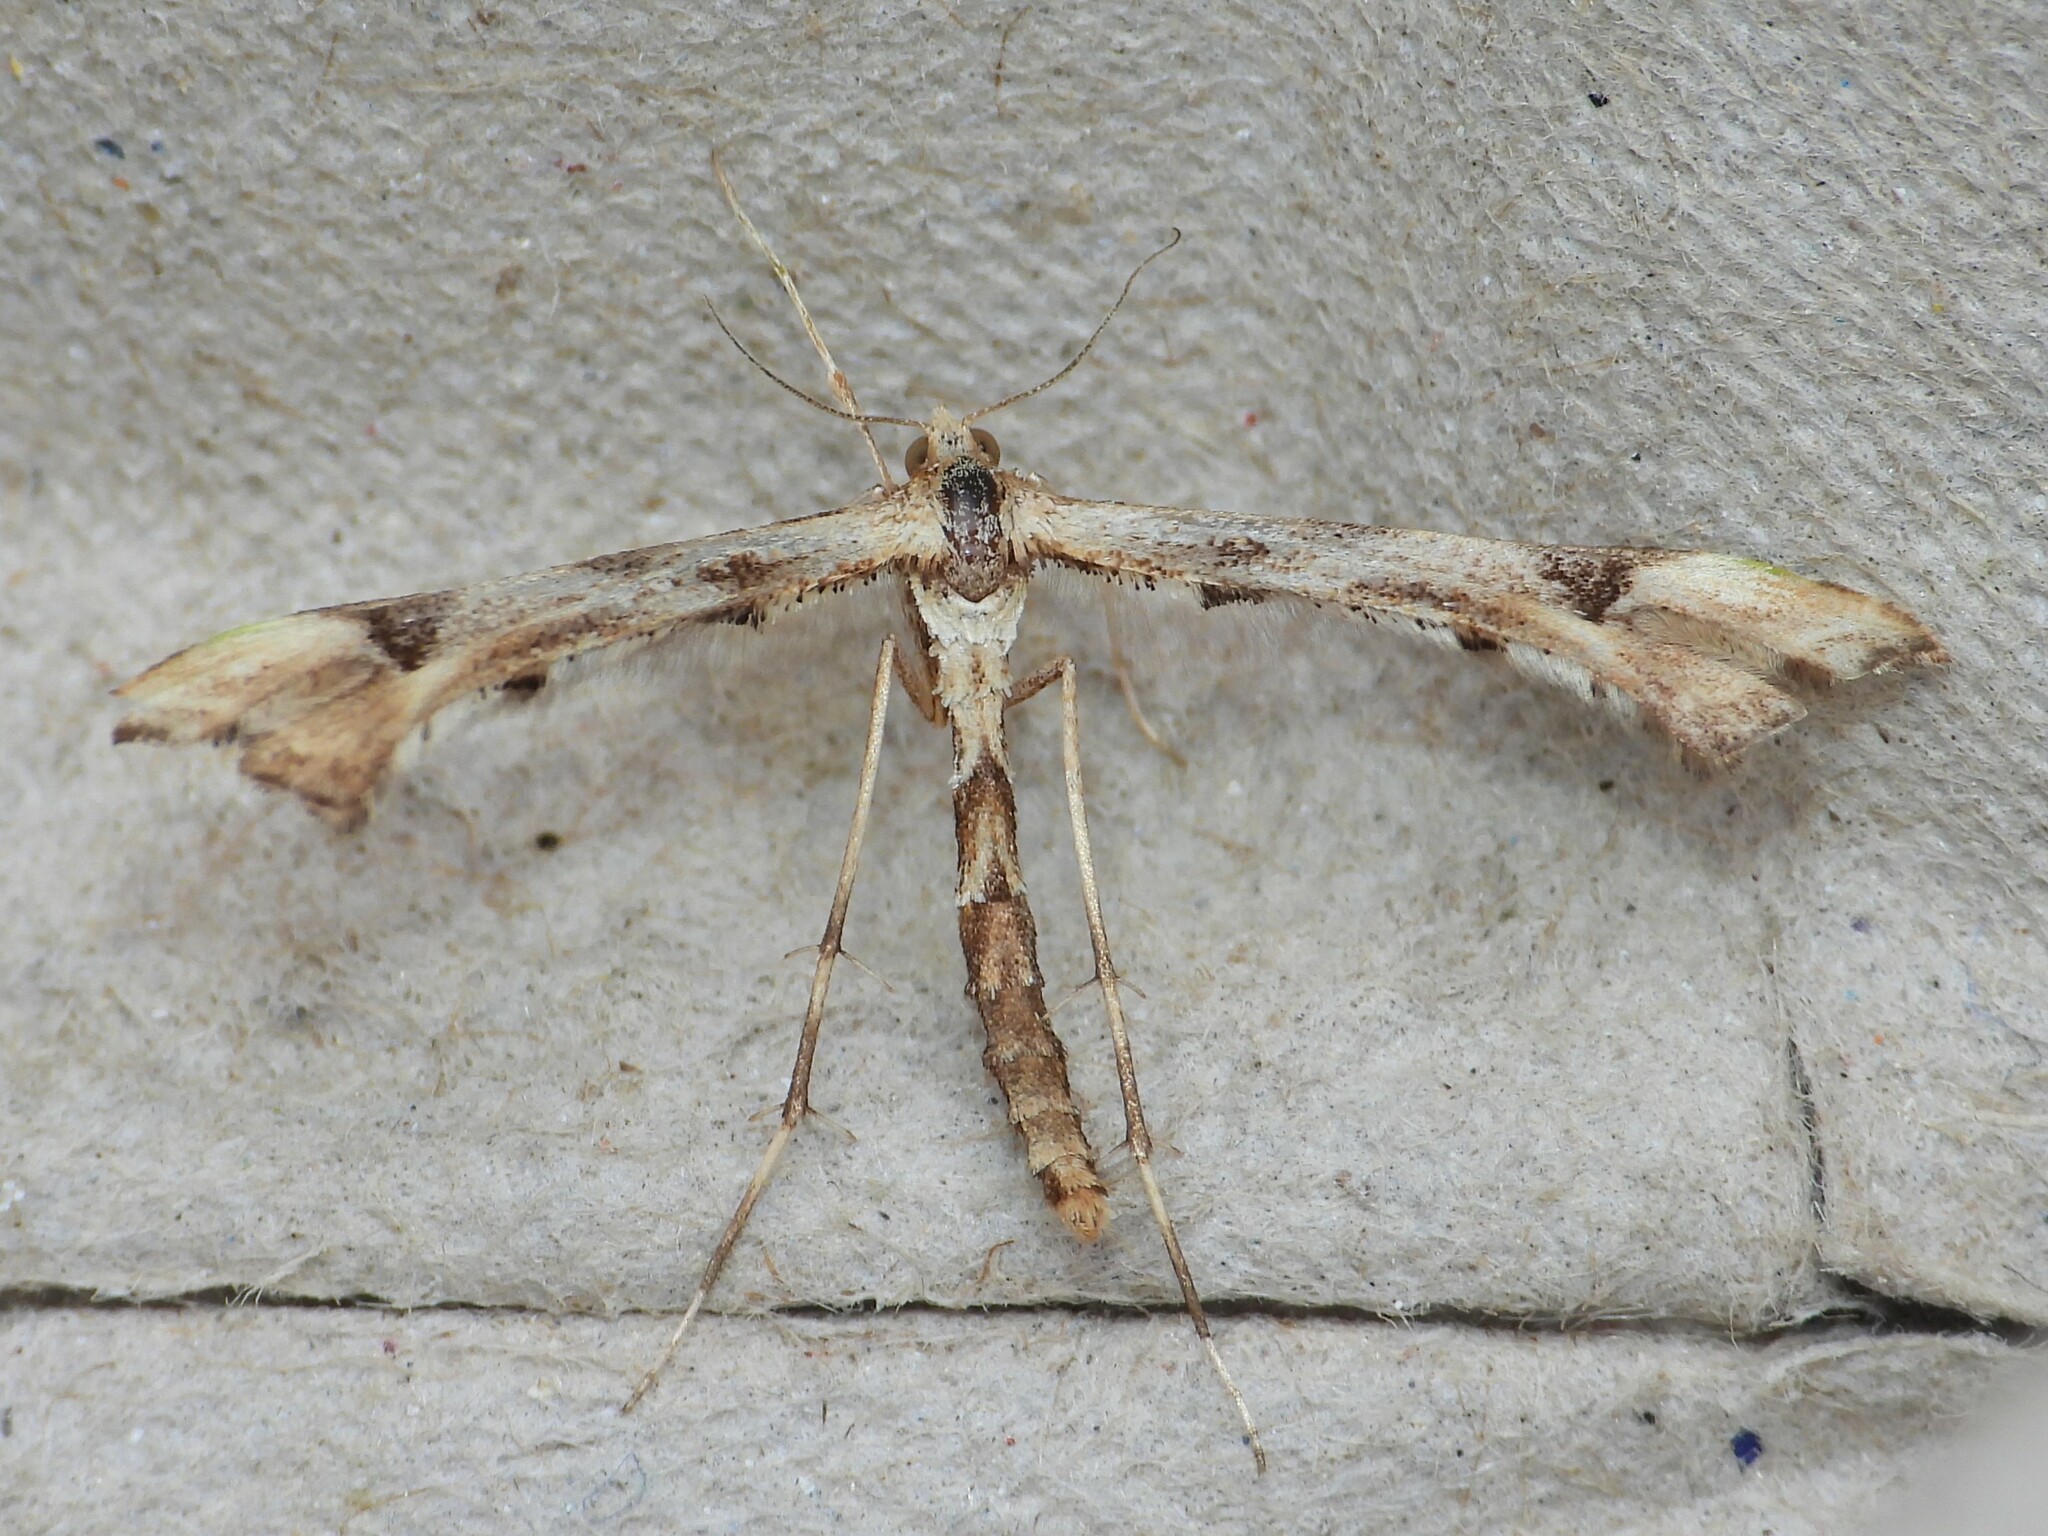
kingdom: Animalia
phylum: Arthropoda
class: Insecta
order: Lepidoptera
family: Pterophoridae
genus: Platyptilia
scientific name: Platyptilia carduidactylus
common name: Artichoke plume moth
